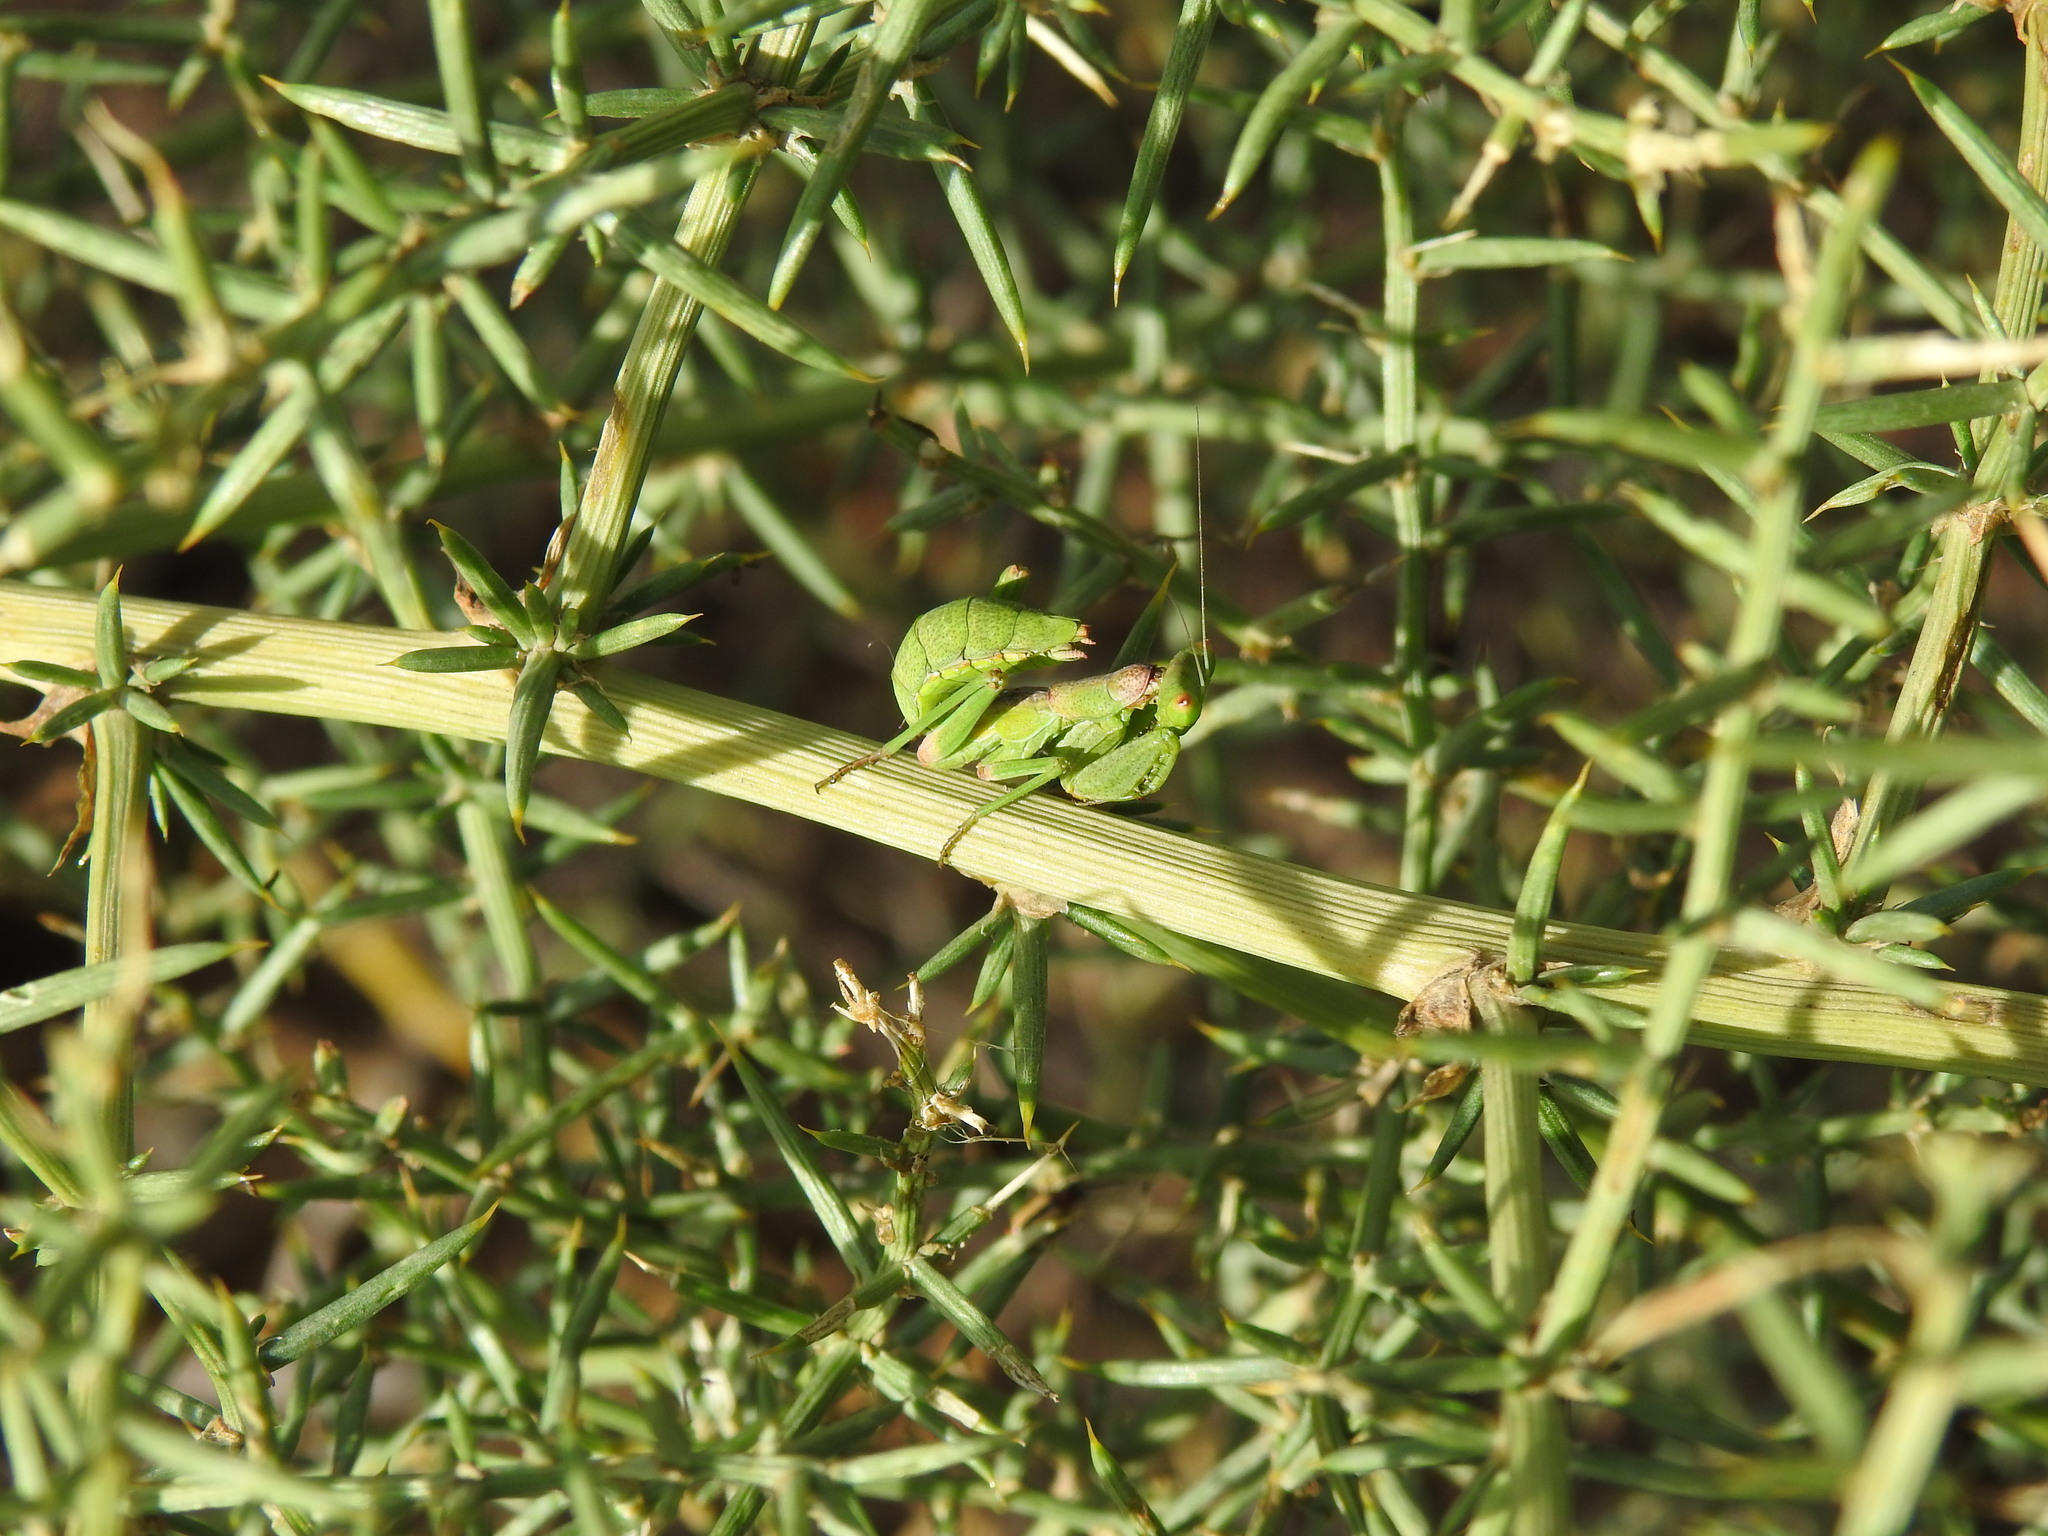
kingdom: Animalia
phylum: Arthropoda
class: Insecta
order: Mantodea
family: Amelidae
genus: Ameles
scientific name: Ameles spallanzania
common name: European dwarf mantis
